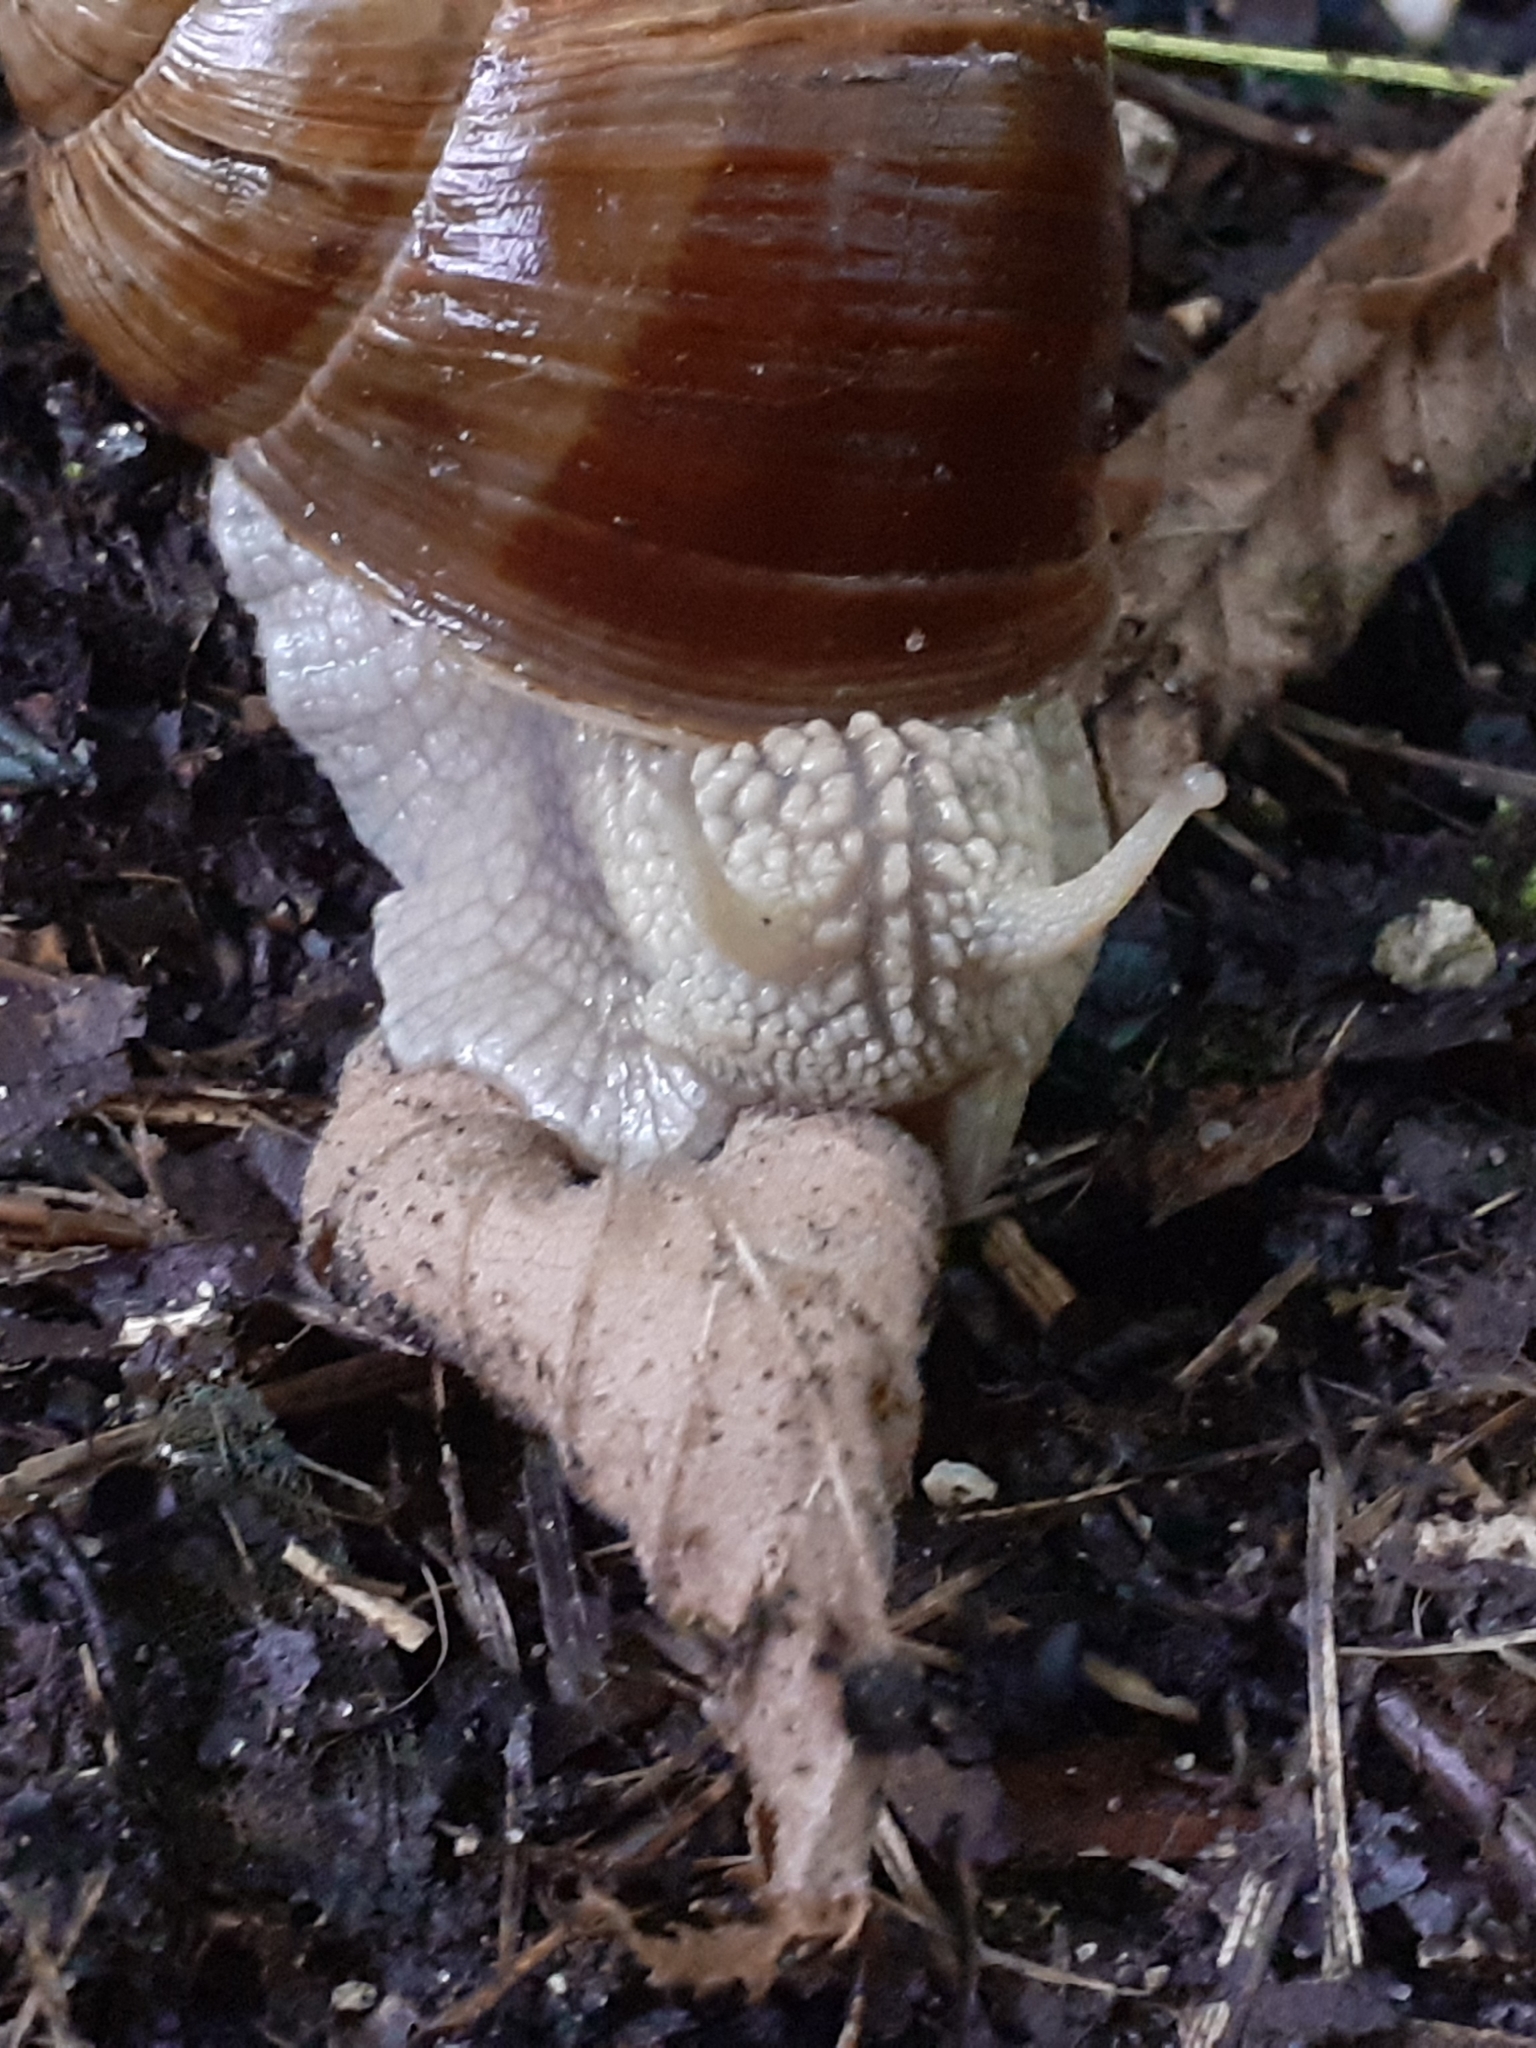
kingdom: Animalia
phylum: Mollusca
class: Gastropoda
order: Stylommatophora
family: Helicidae
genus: Helix
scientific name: Helix pomatia
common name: Roman snail
